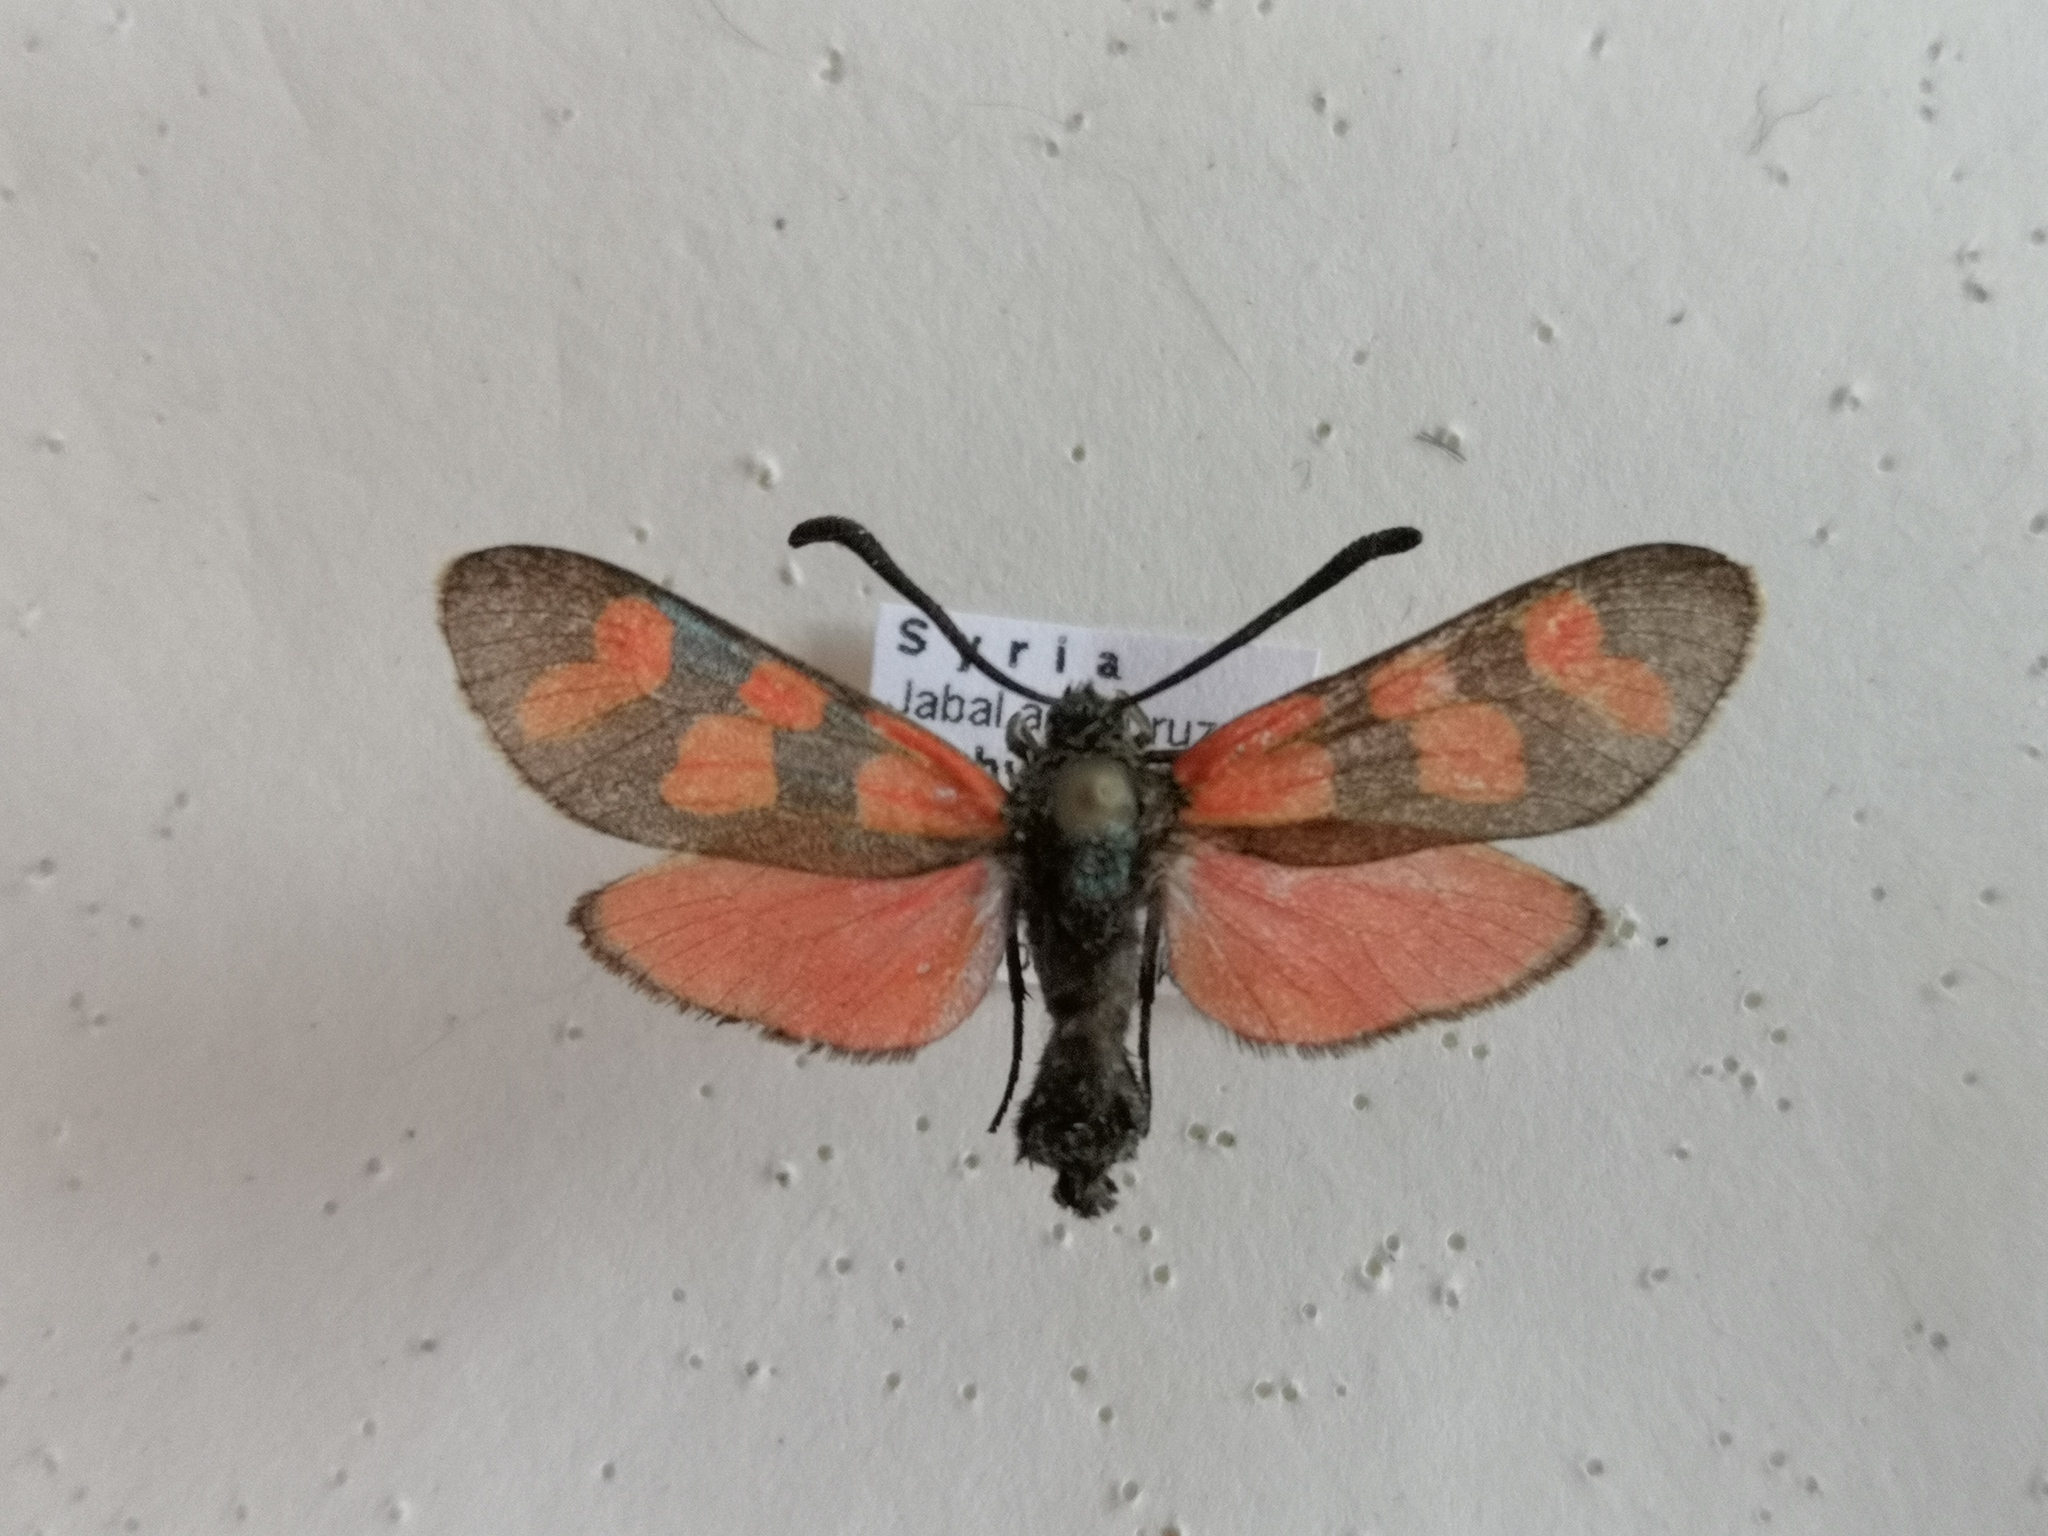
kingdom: Animalia
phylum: Arthropoda
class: Insecta
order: Lepidoptera
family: Zygaenidae
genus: Zygaena
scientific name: Zygaena graslini
